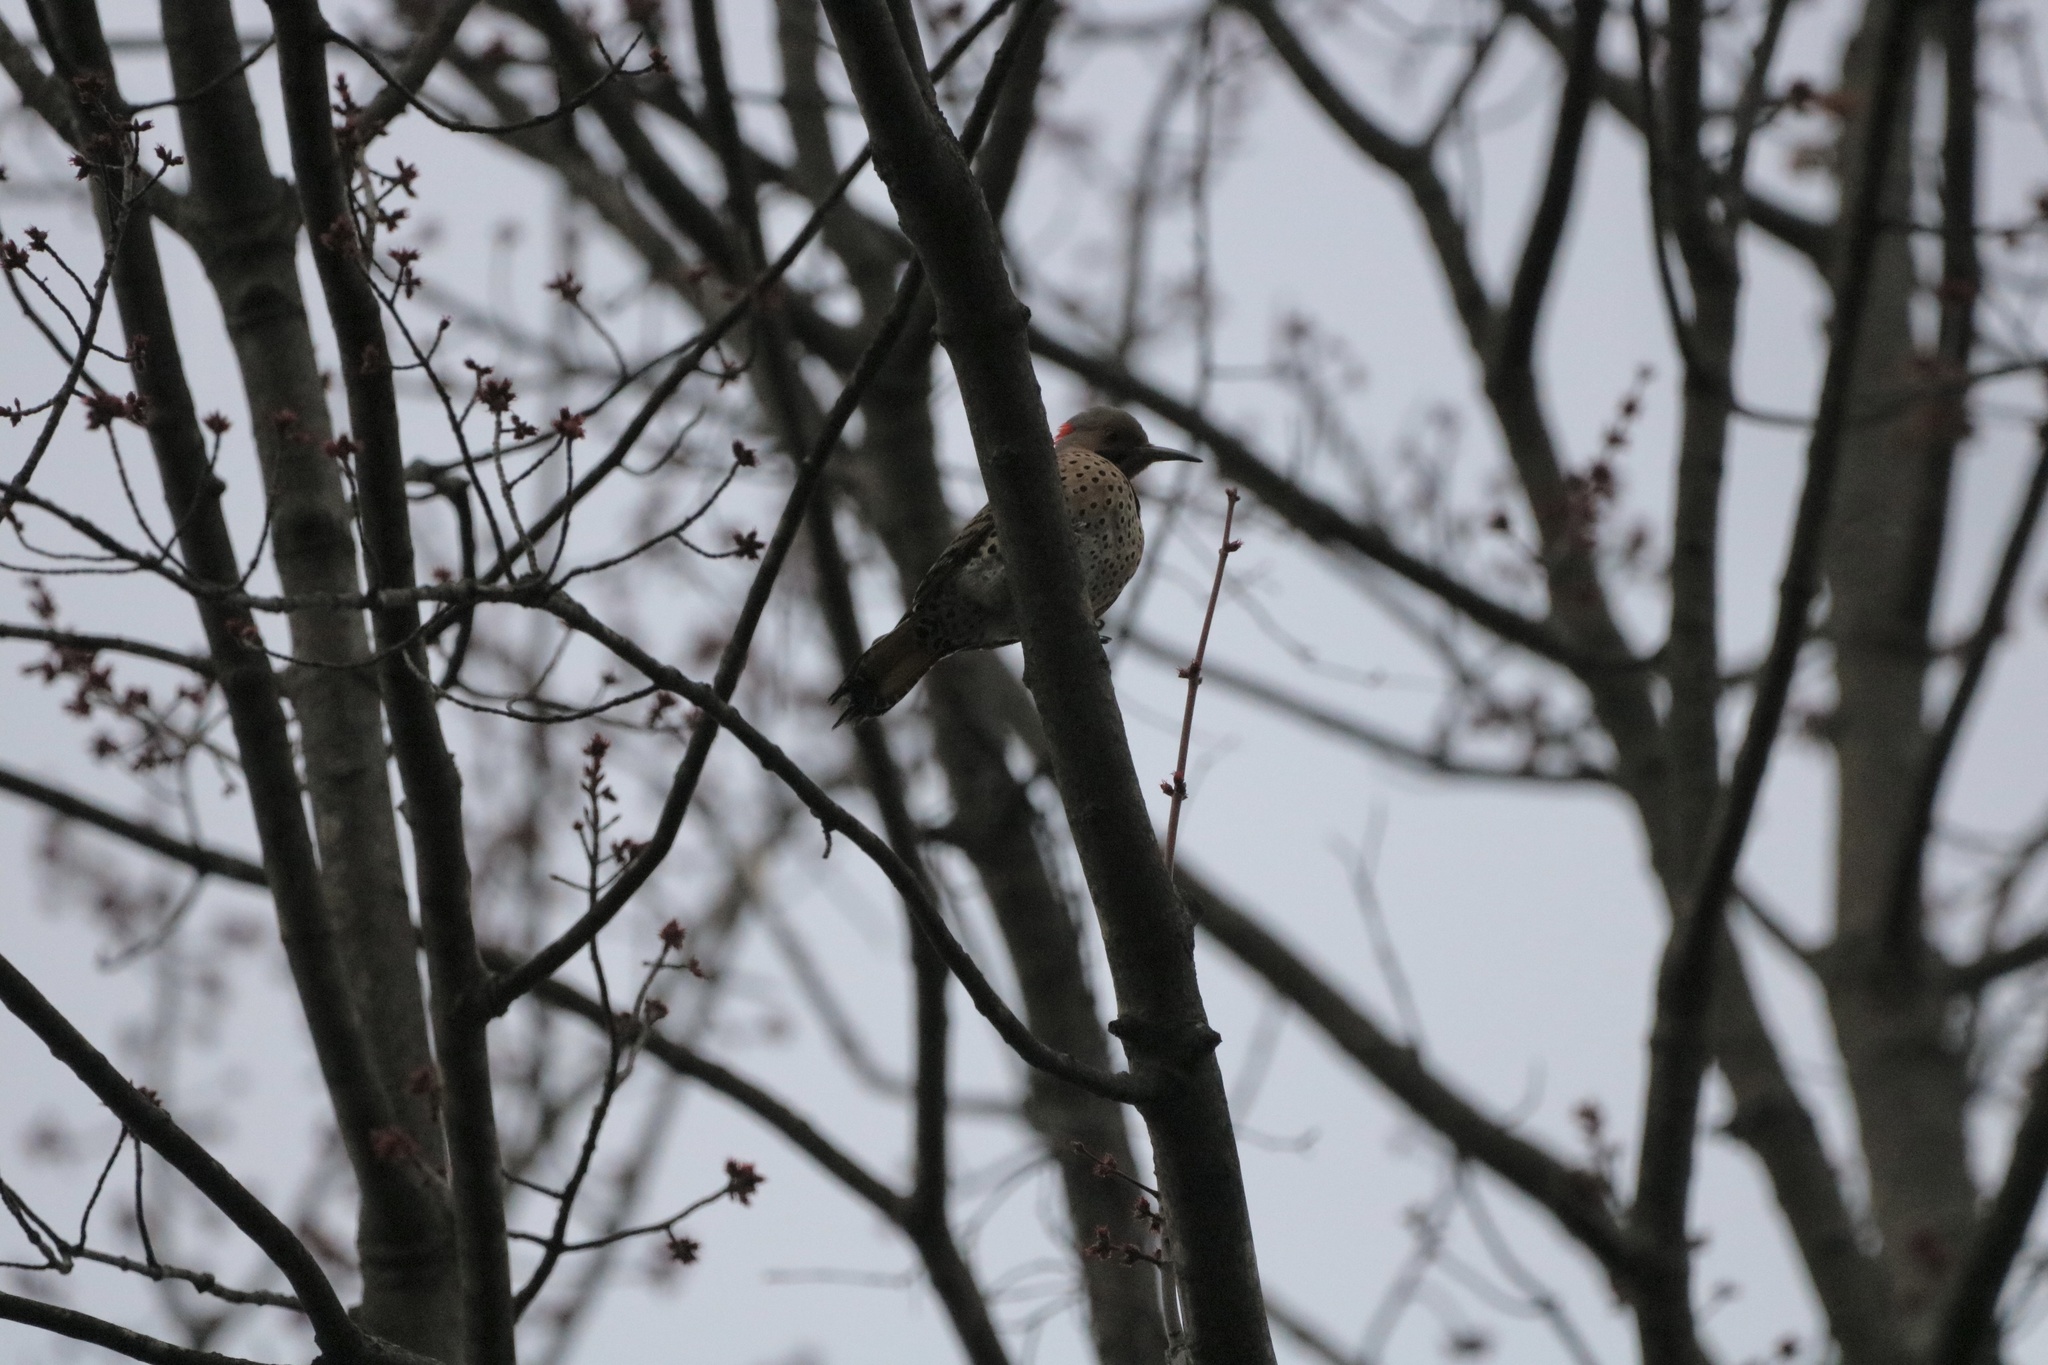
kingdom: Animalia
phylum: Chordata
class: Aves
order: Piciformes
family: Picidae
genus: Colaptes
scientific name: Colaptes auratus
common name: Northern flicker
